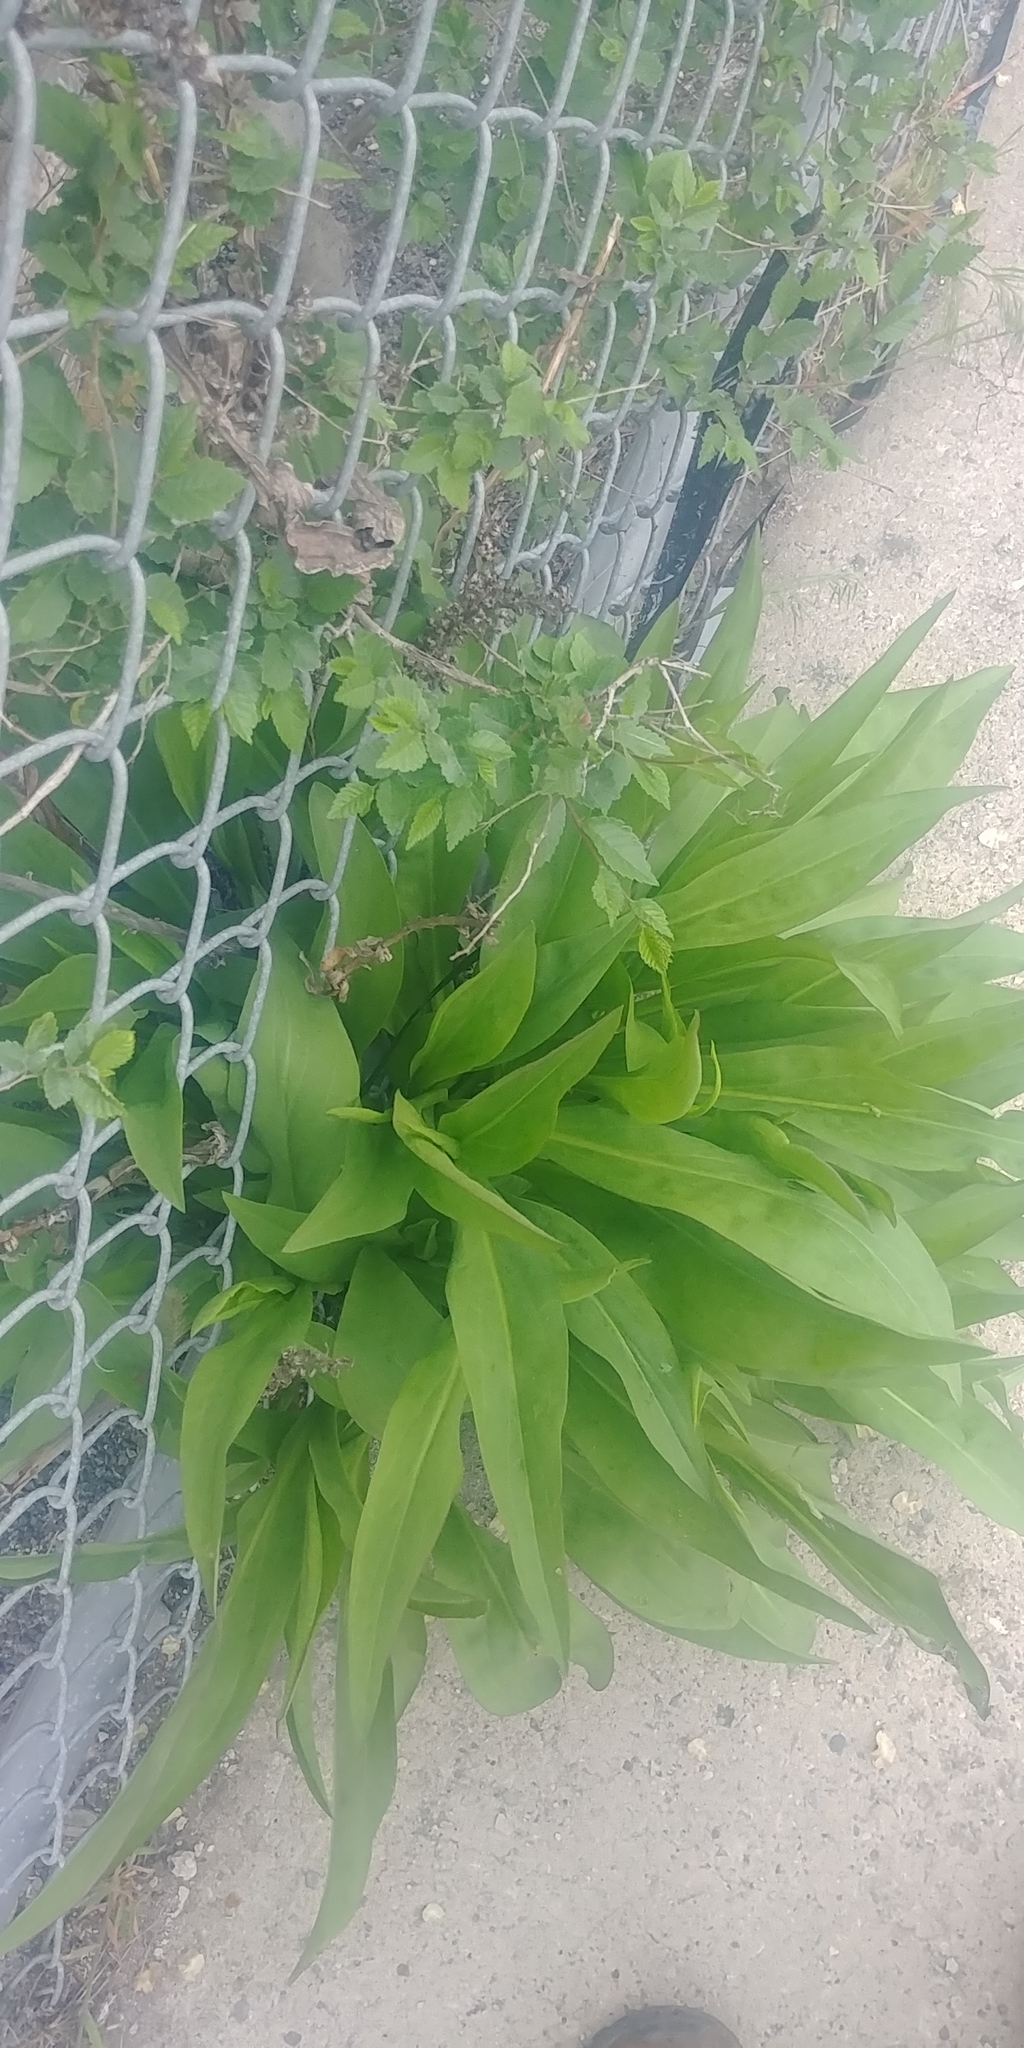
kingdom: Plantae
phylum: Tracheophyta
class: Magnoliopsida
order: Asterales
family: Asteraceae
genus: Solidago
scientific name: Solidago sempervirens
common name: Salt-marsh goldenrod
